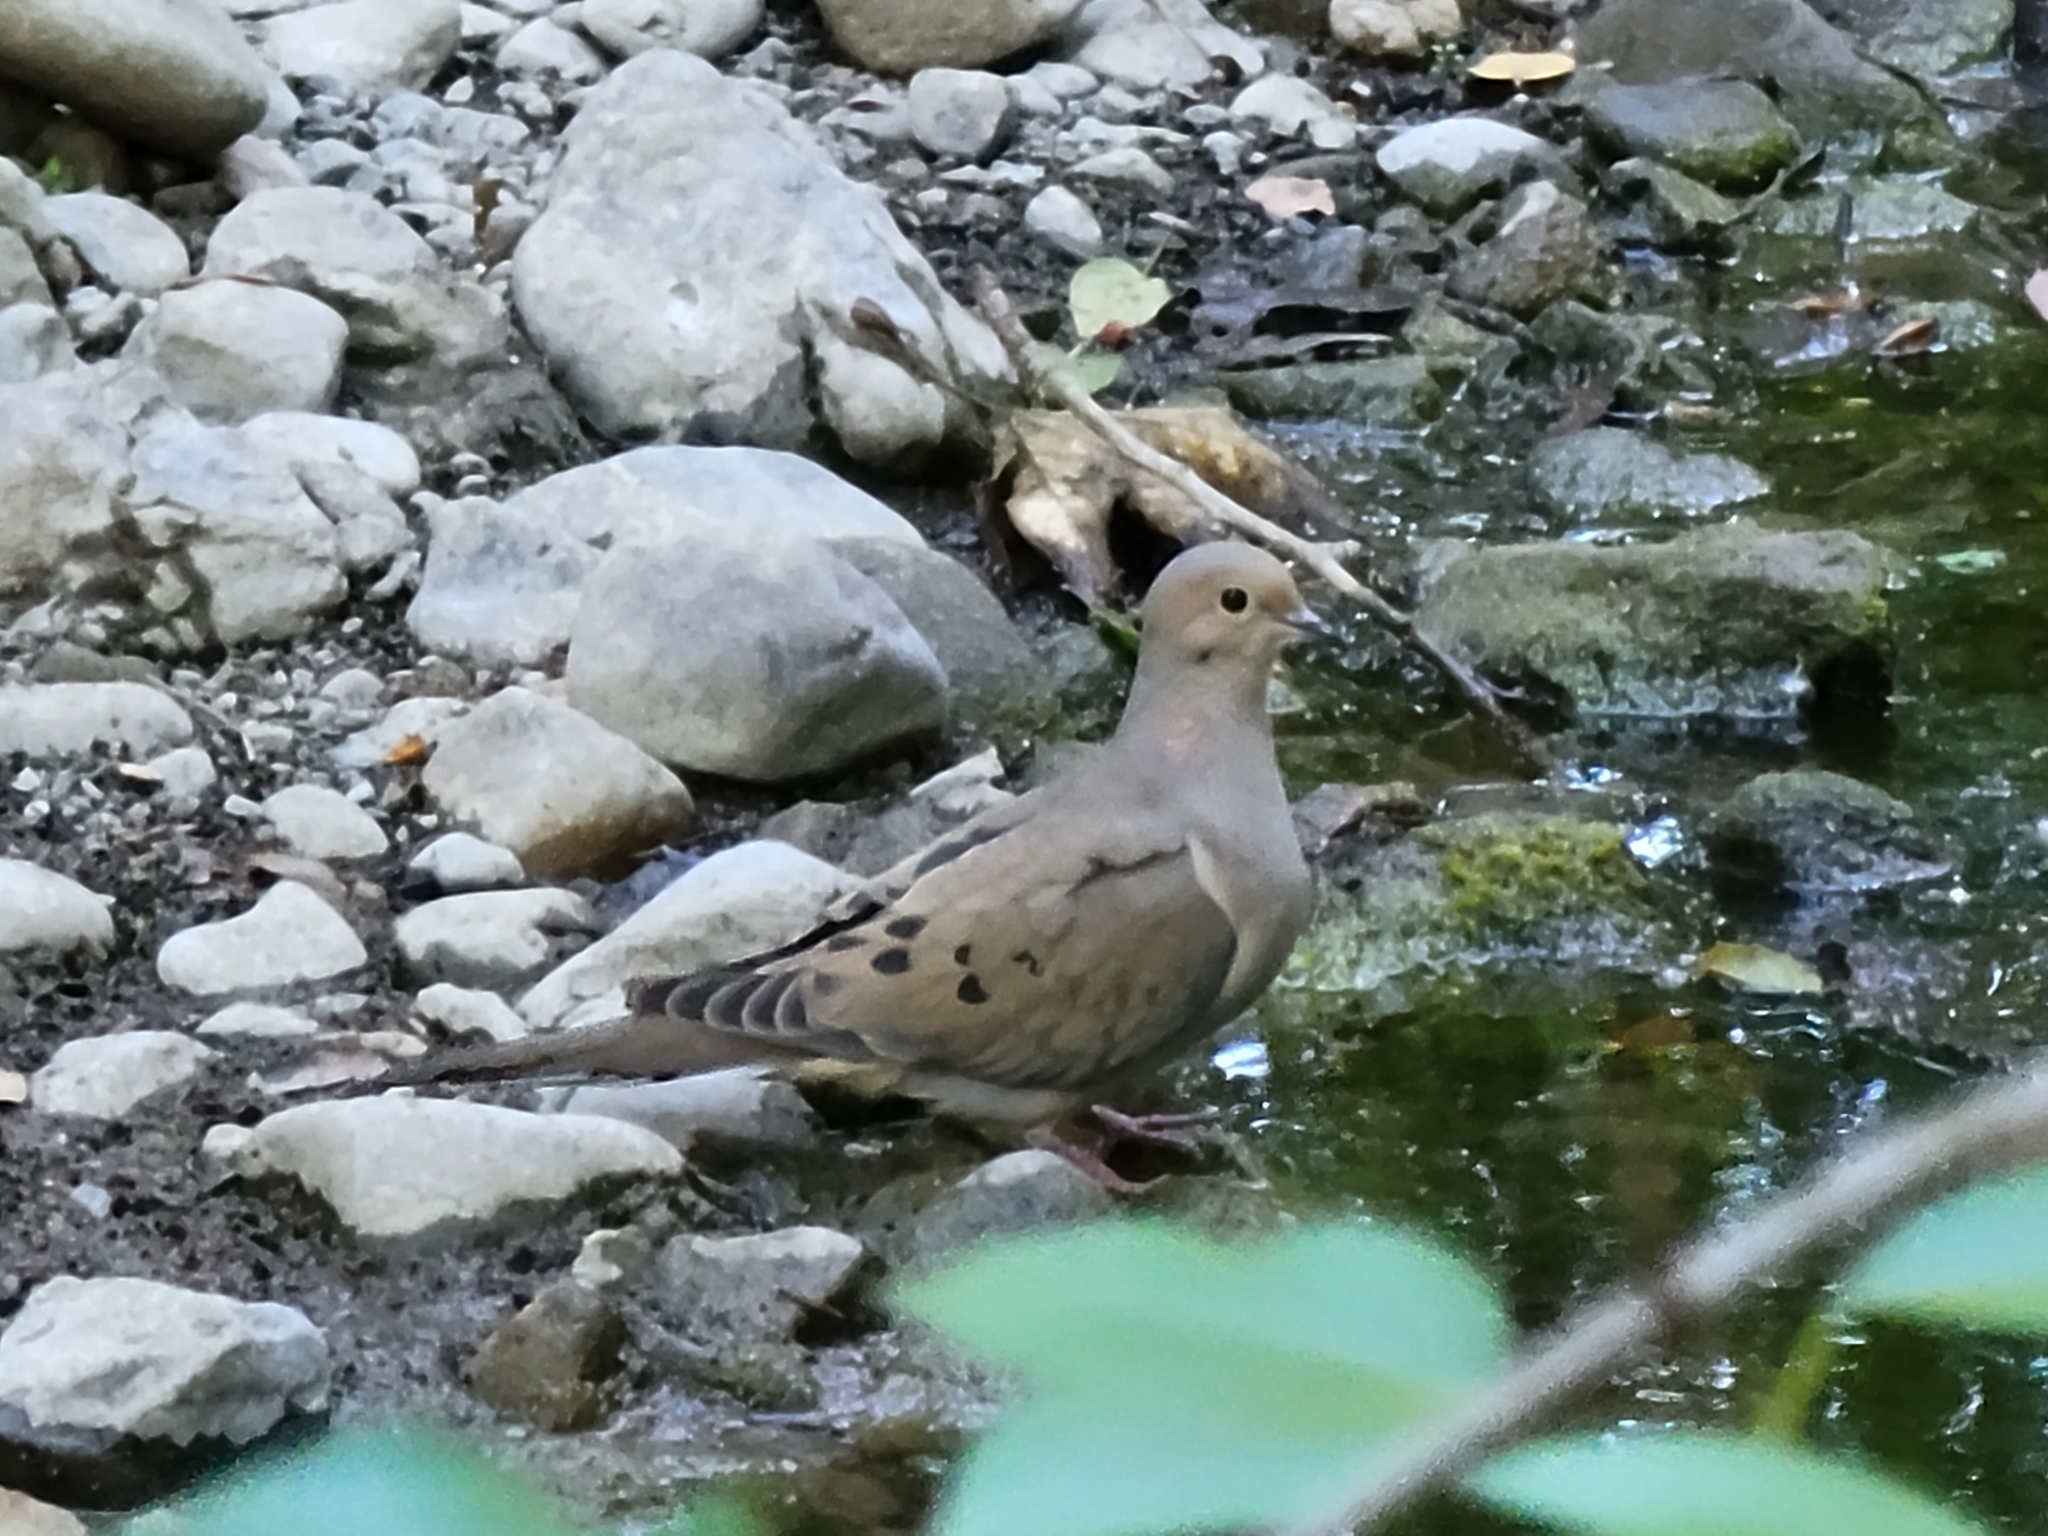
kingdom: Animalia
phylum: Chordata
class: Aves
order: Columbiformes
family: Columbidae
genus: Zenaida
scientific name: Zenaida macroura
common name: Mourning dove
